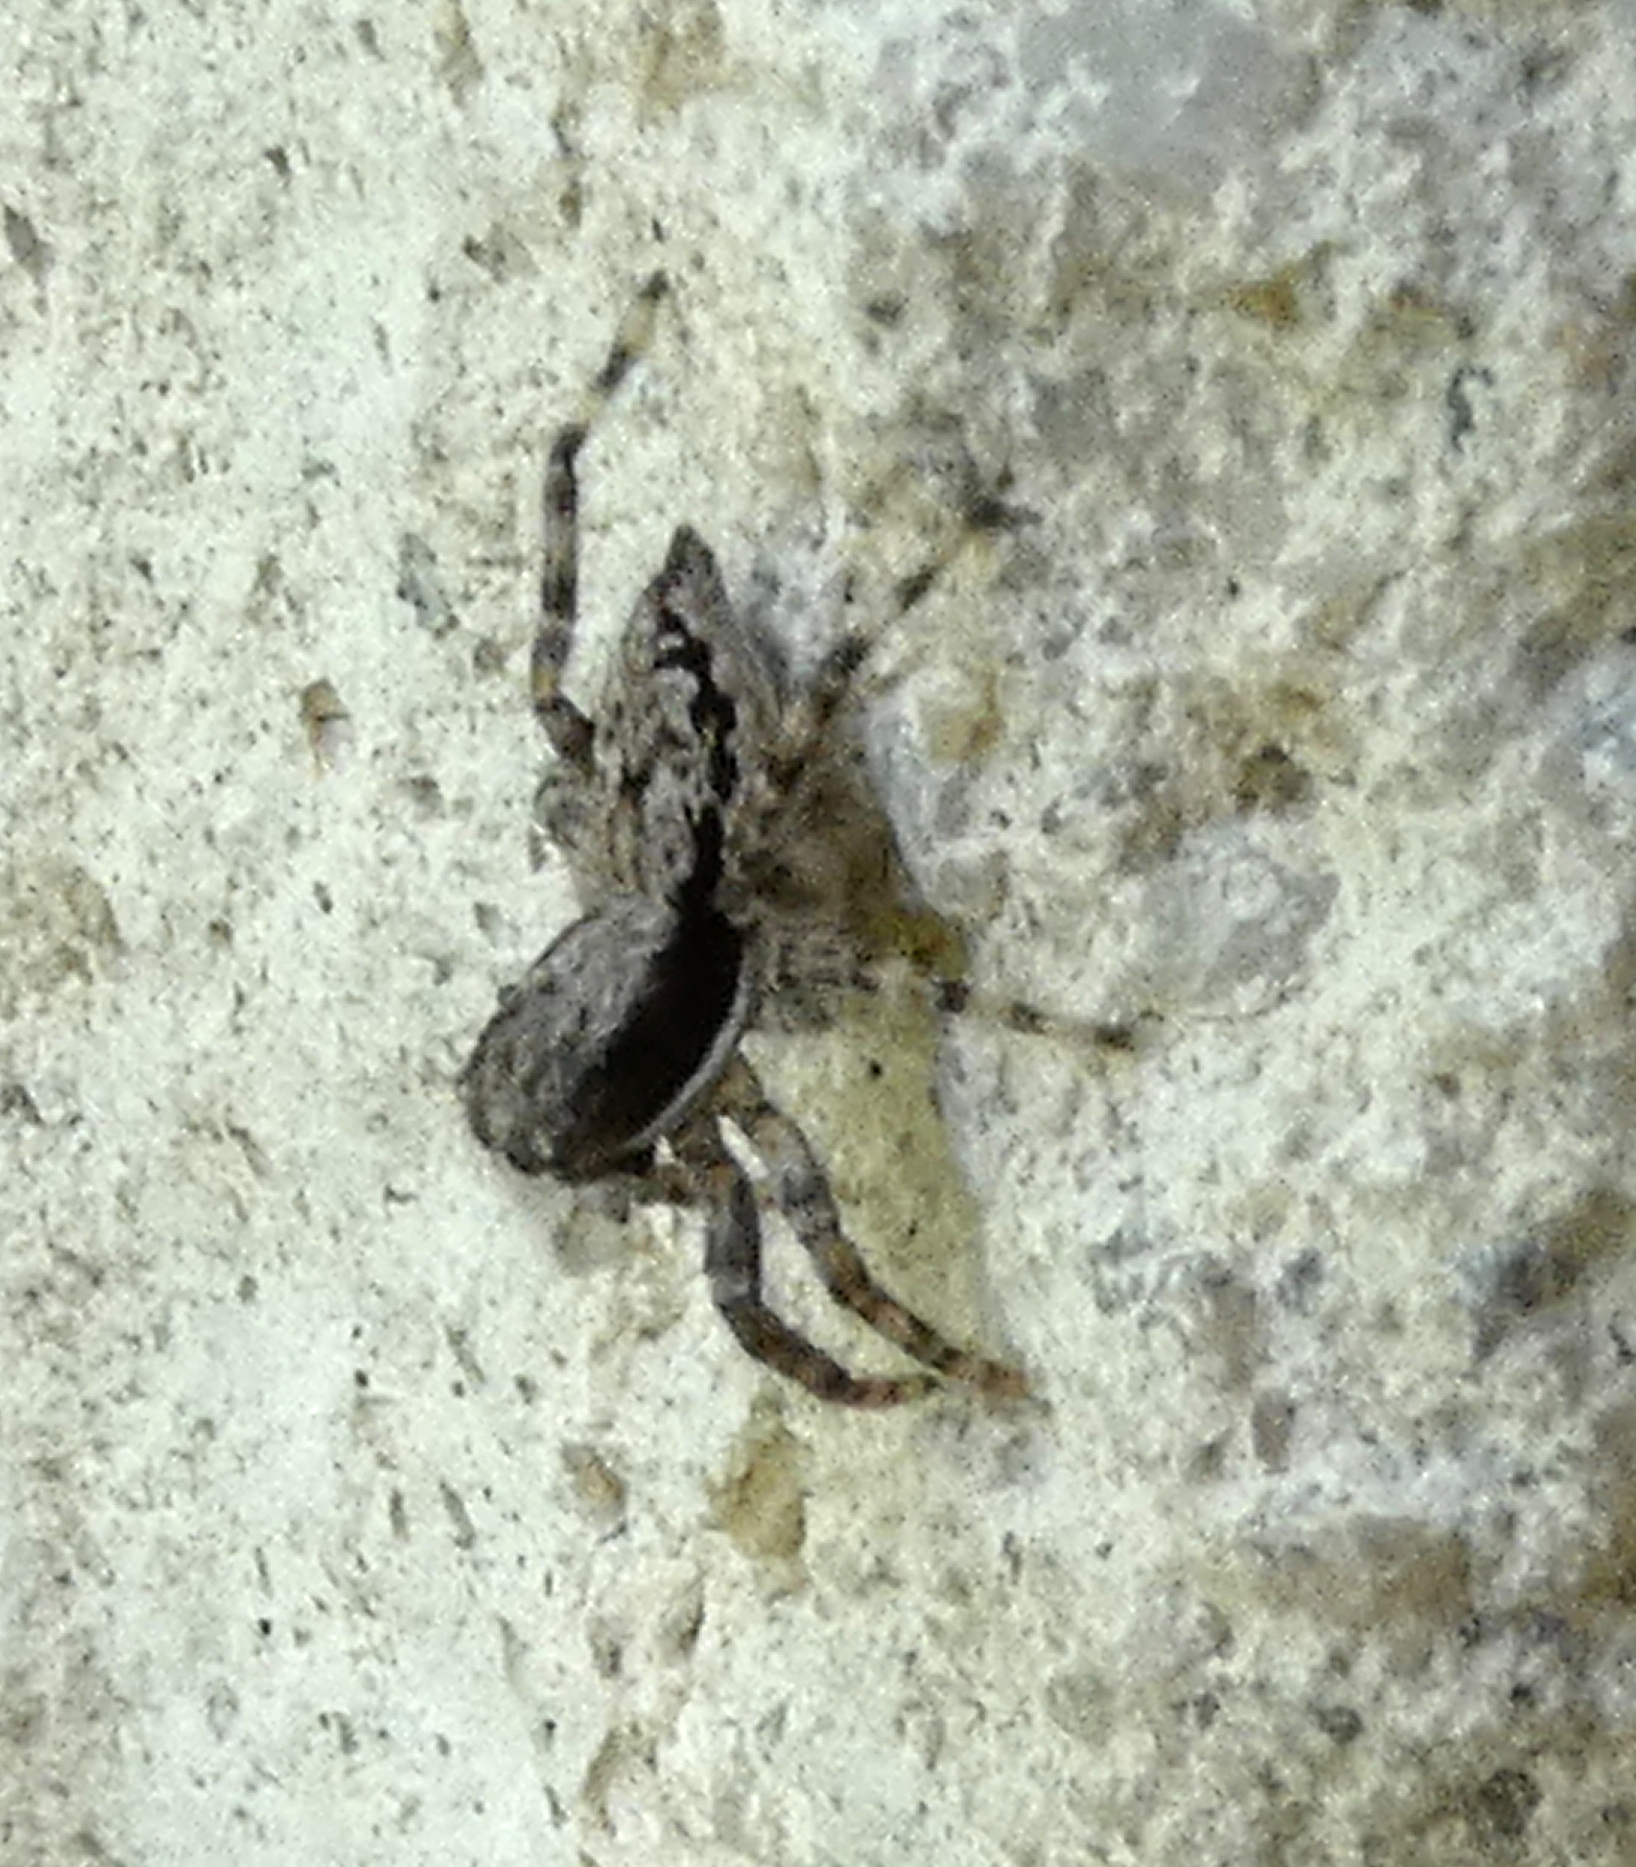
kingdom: Animalia
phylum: Arthropoda
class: Arachnida
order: Araneae
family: Salticidae
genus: Menemerus
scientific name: Menemerus bivittatus
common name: Gray wall jumper
